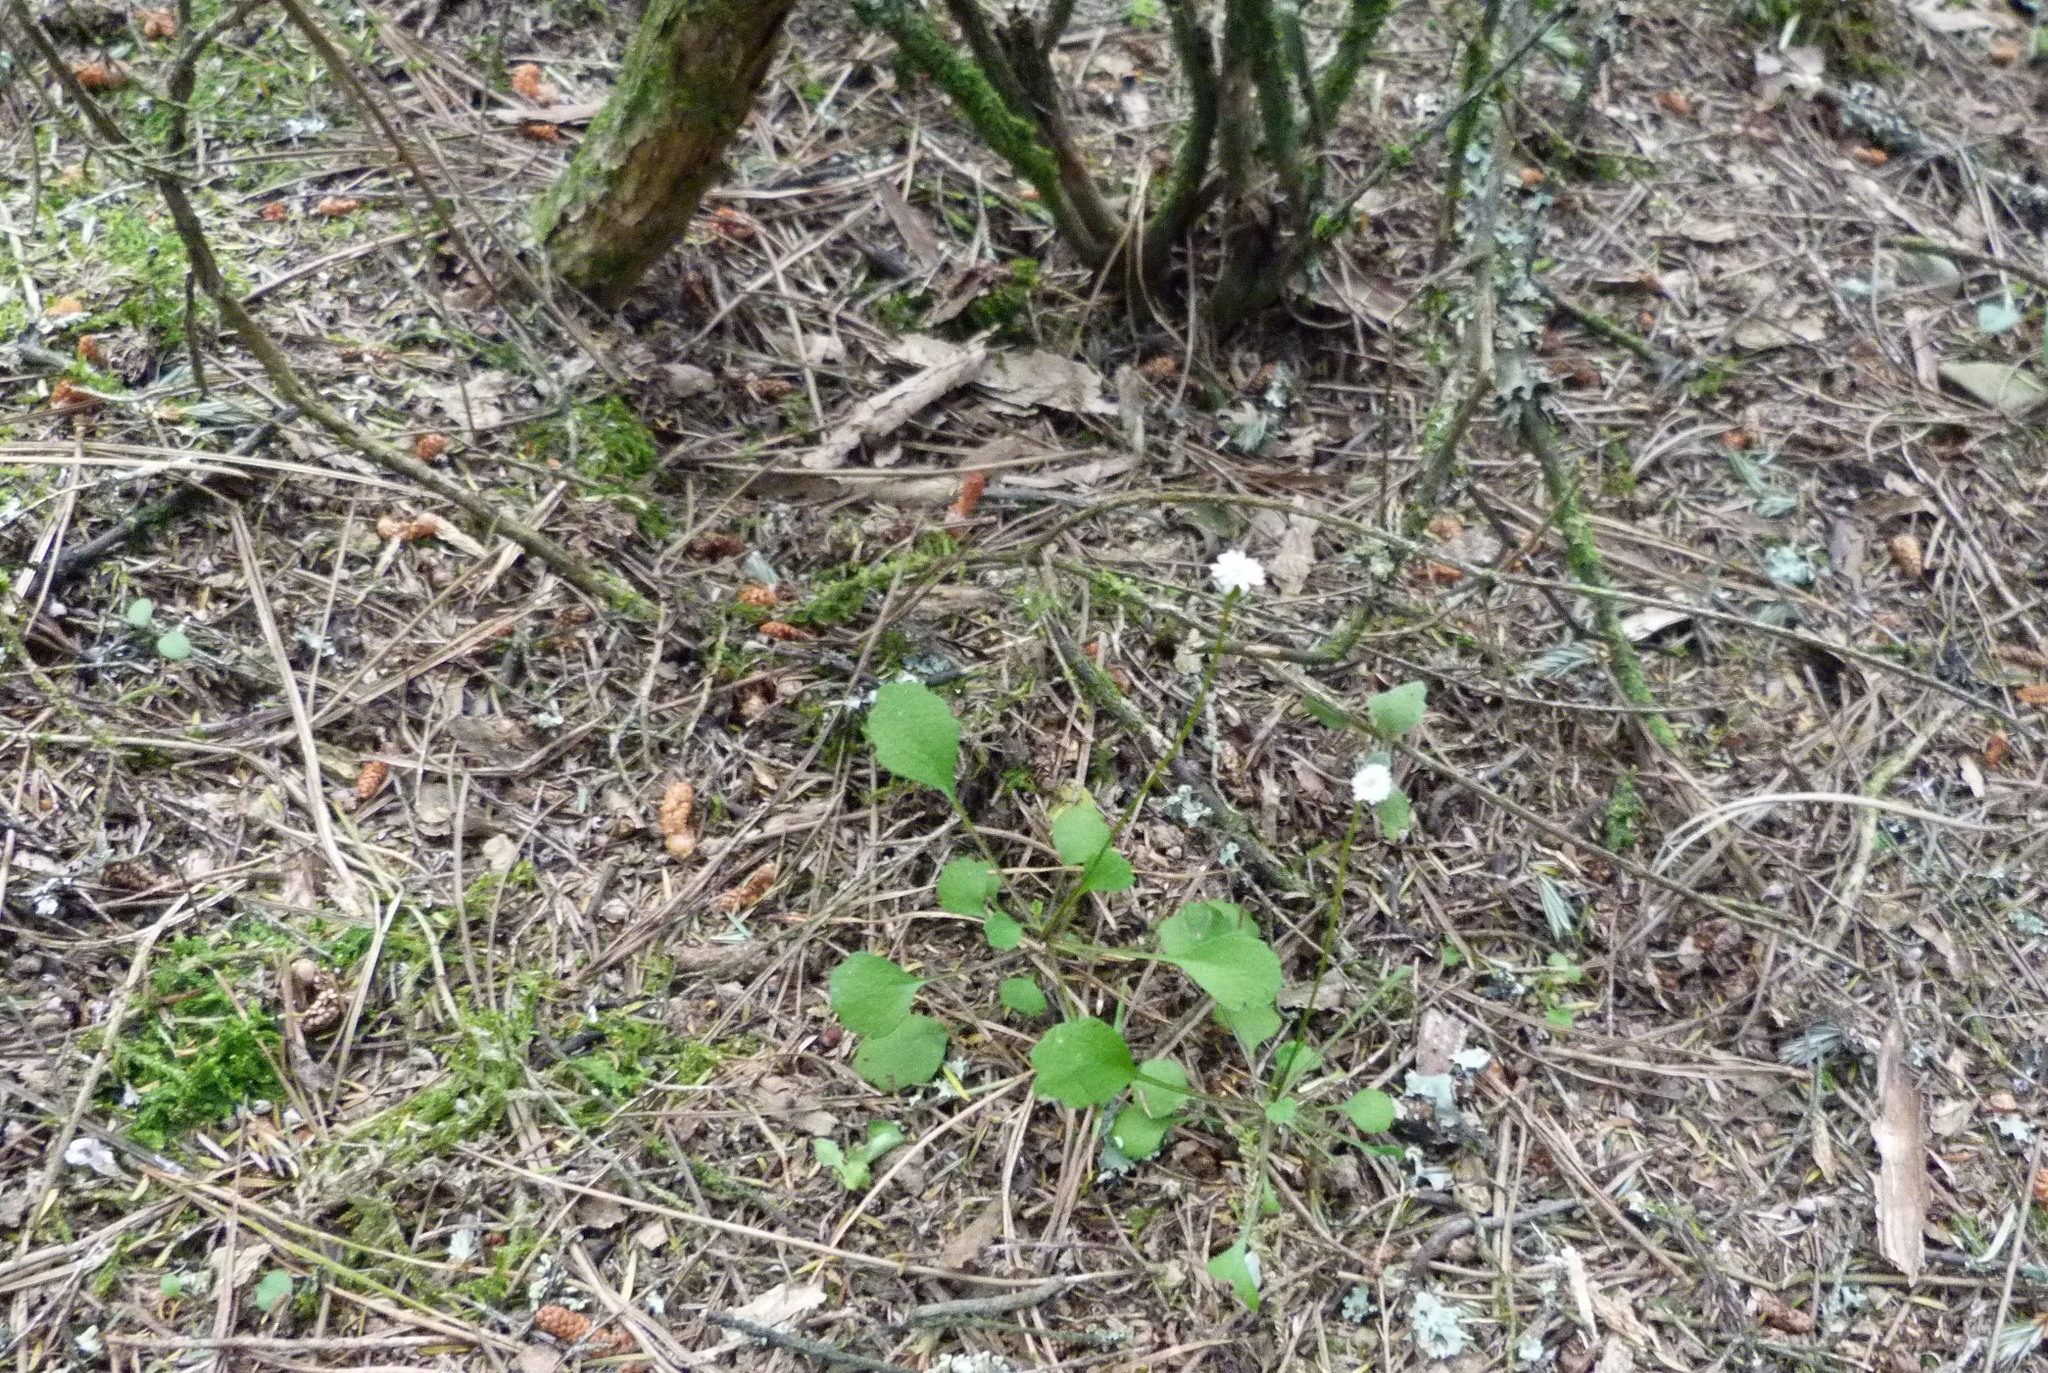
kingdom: Plantae
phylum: Tracheophyta
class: Magnoliopsida
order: Asterales
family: Asteraceae
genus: Lagenophora
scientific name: Lagenophora strangulata
